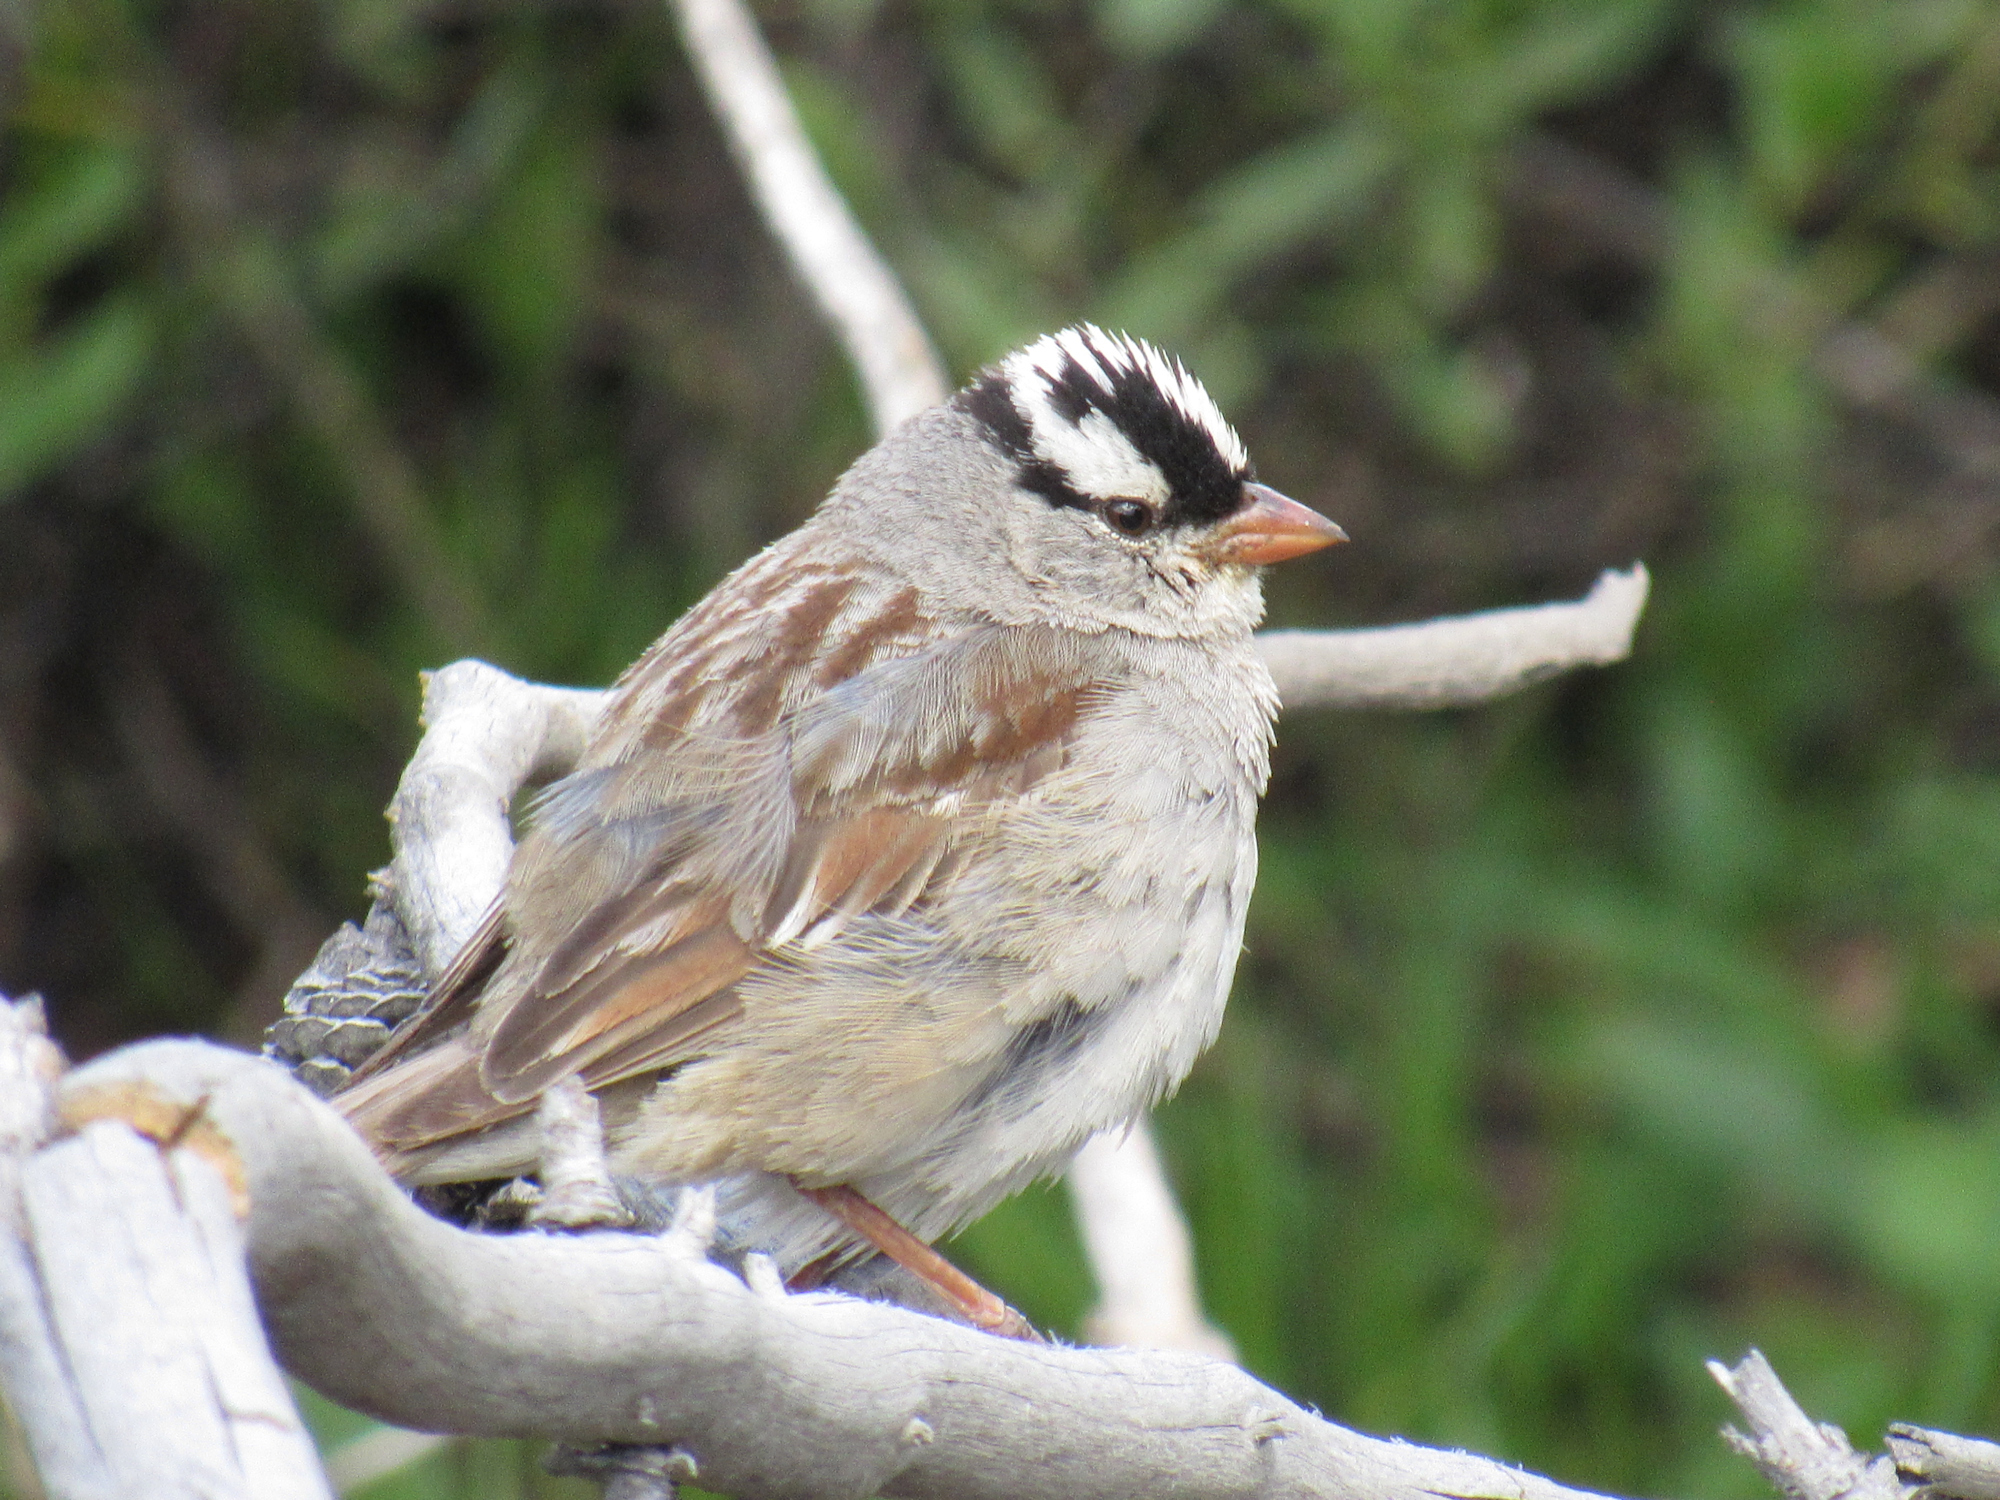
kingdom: Animalia
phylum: Chordata
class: Aves
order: Passeriformes
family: Passerellidae
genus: Zonotrichia
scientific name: Zonotrichia leucophrys
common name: White-crowned sparrow
